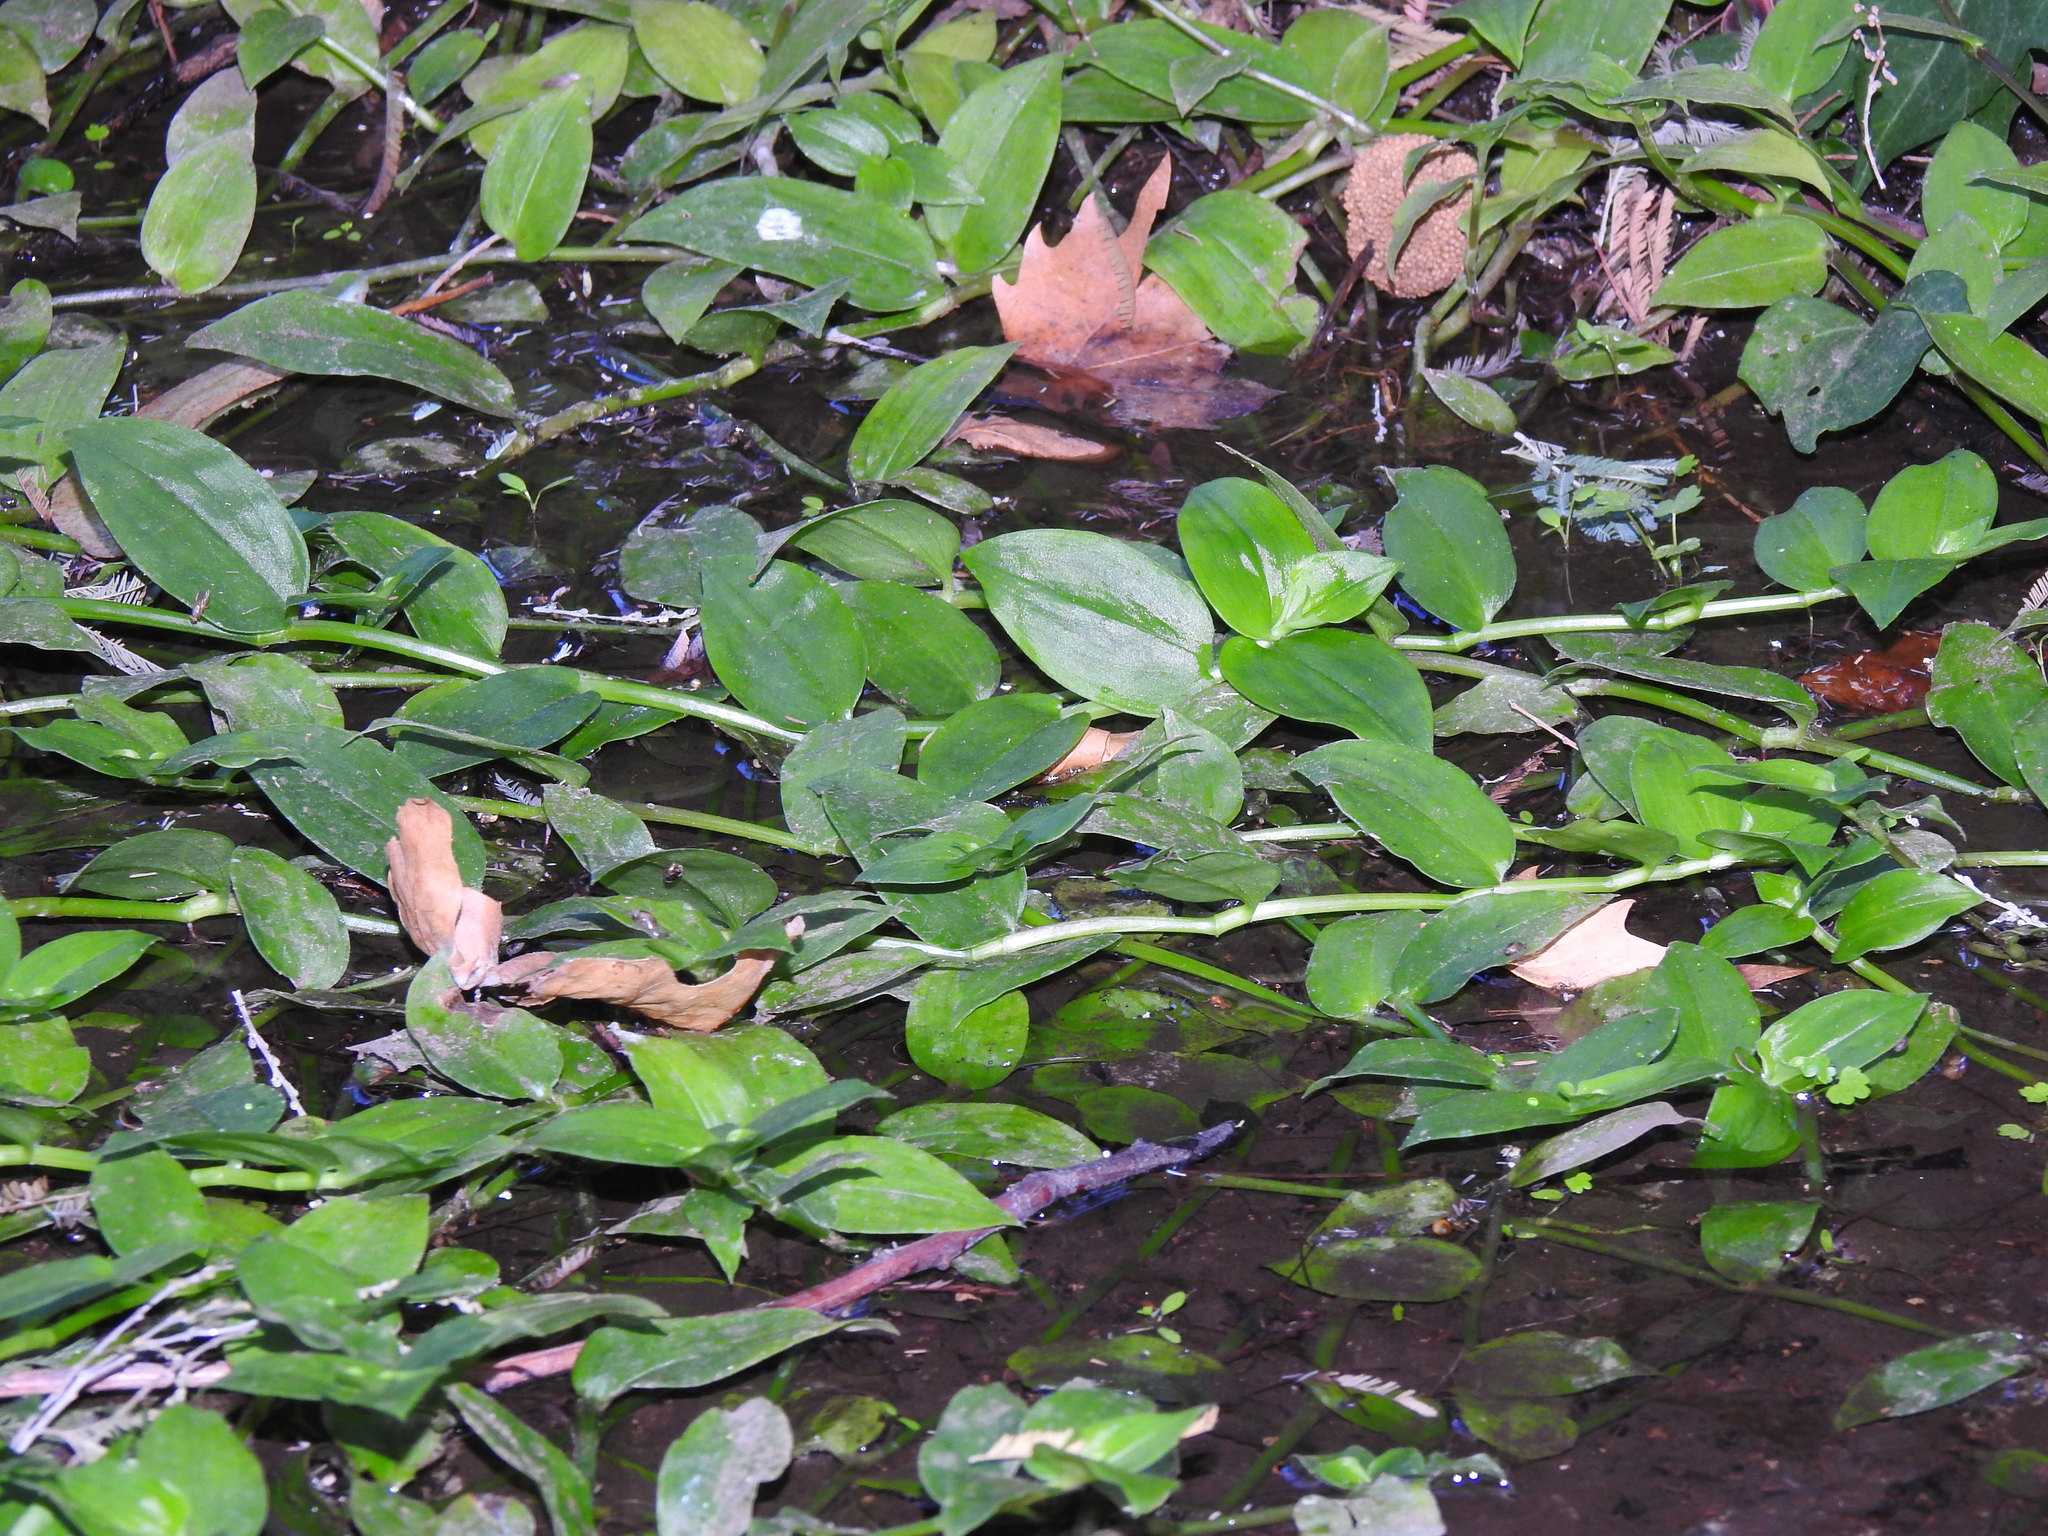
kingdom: Plantae
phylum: Tracheophyta
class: Liliopsida
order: Commelinales
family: Commelinaceae
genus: Tradescantia
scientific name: Tradescantia fluminensis
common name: Wandering-jew
